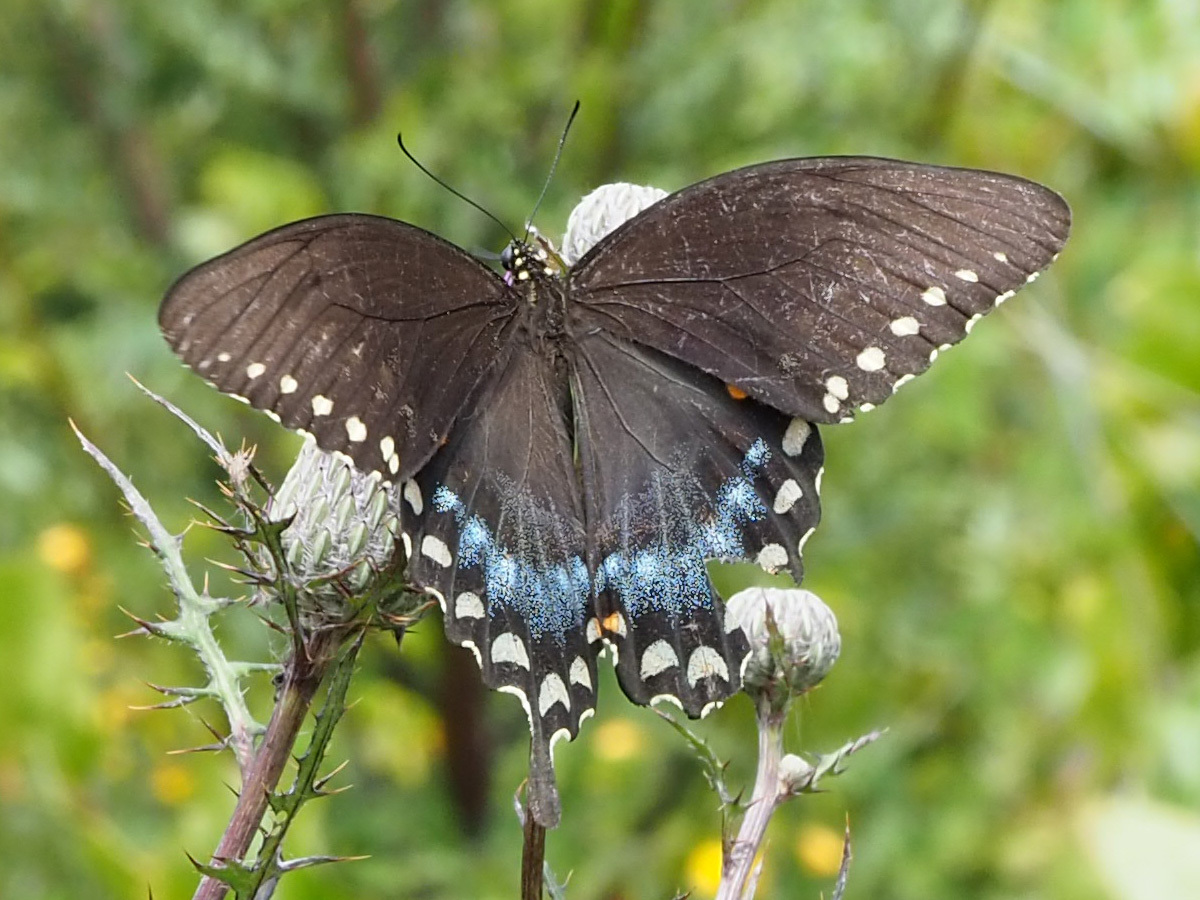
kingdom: Animalia
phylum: Arthropoda
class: Insecta
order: Lepidoptera
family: Papilionidae
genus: Papilio
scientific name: Papilio troilus
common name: Spicebush swallowtail
